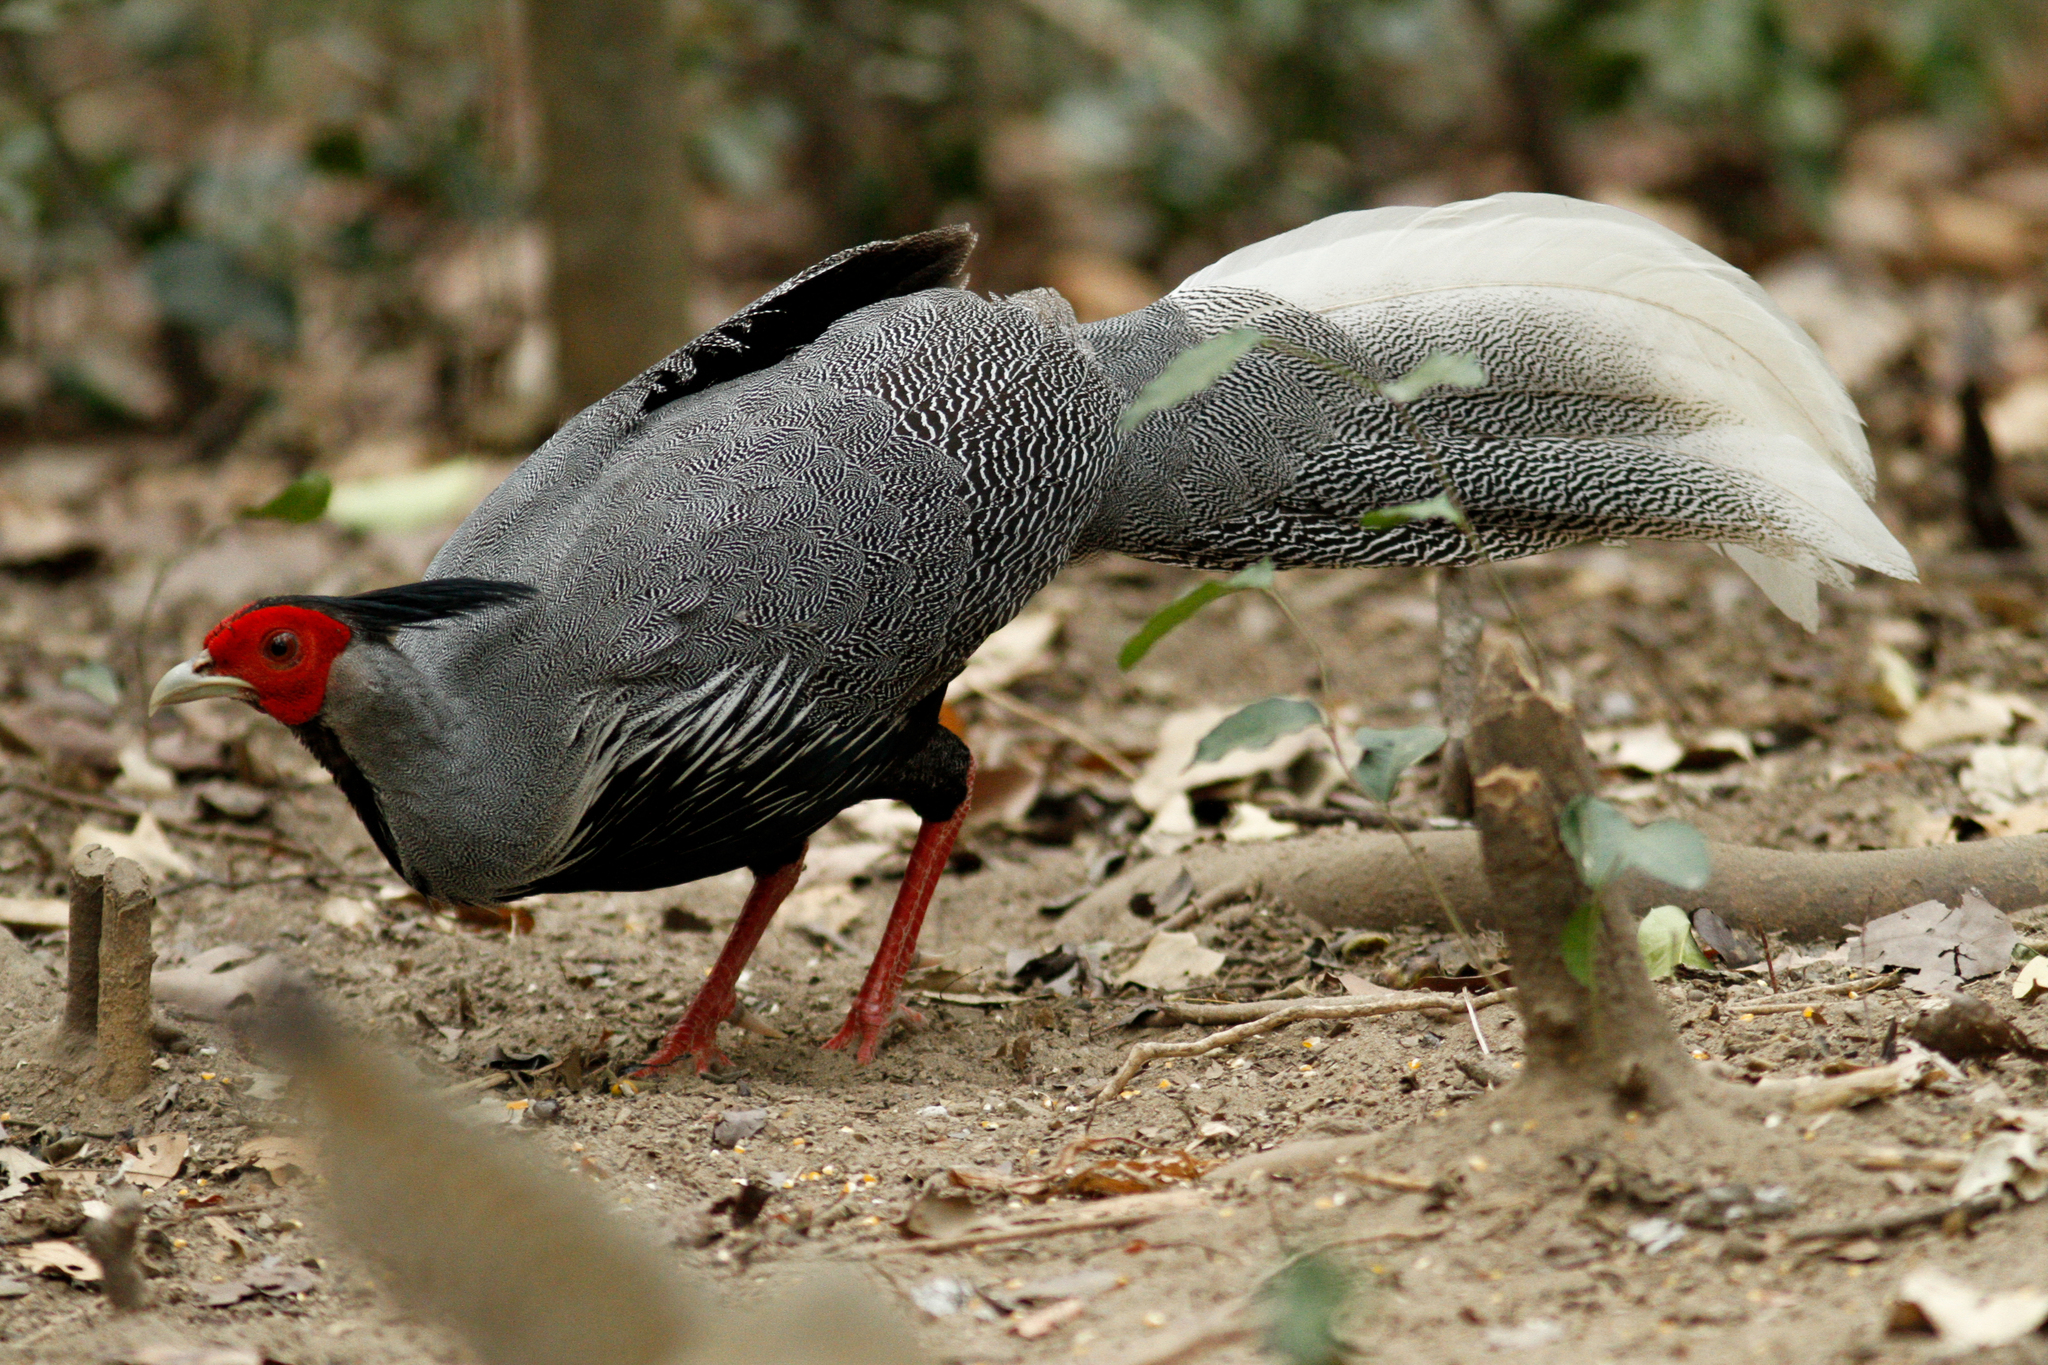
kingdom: Animalia
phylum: Chordata
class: Aves
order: Galliformes
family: Phasianidae
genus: Lophura
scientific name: Lophura leucomelanos
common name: Kalij pheasant
